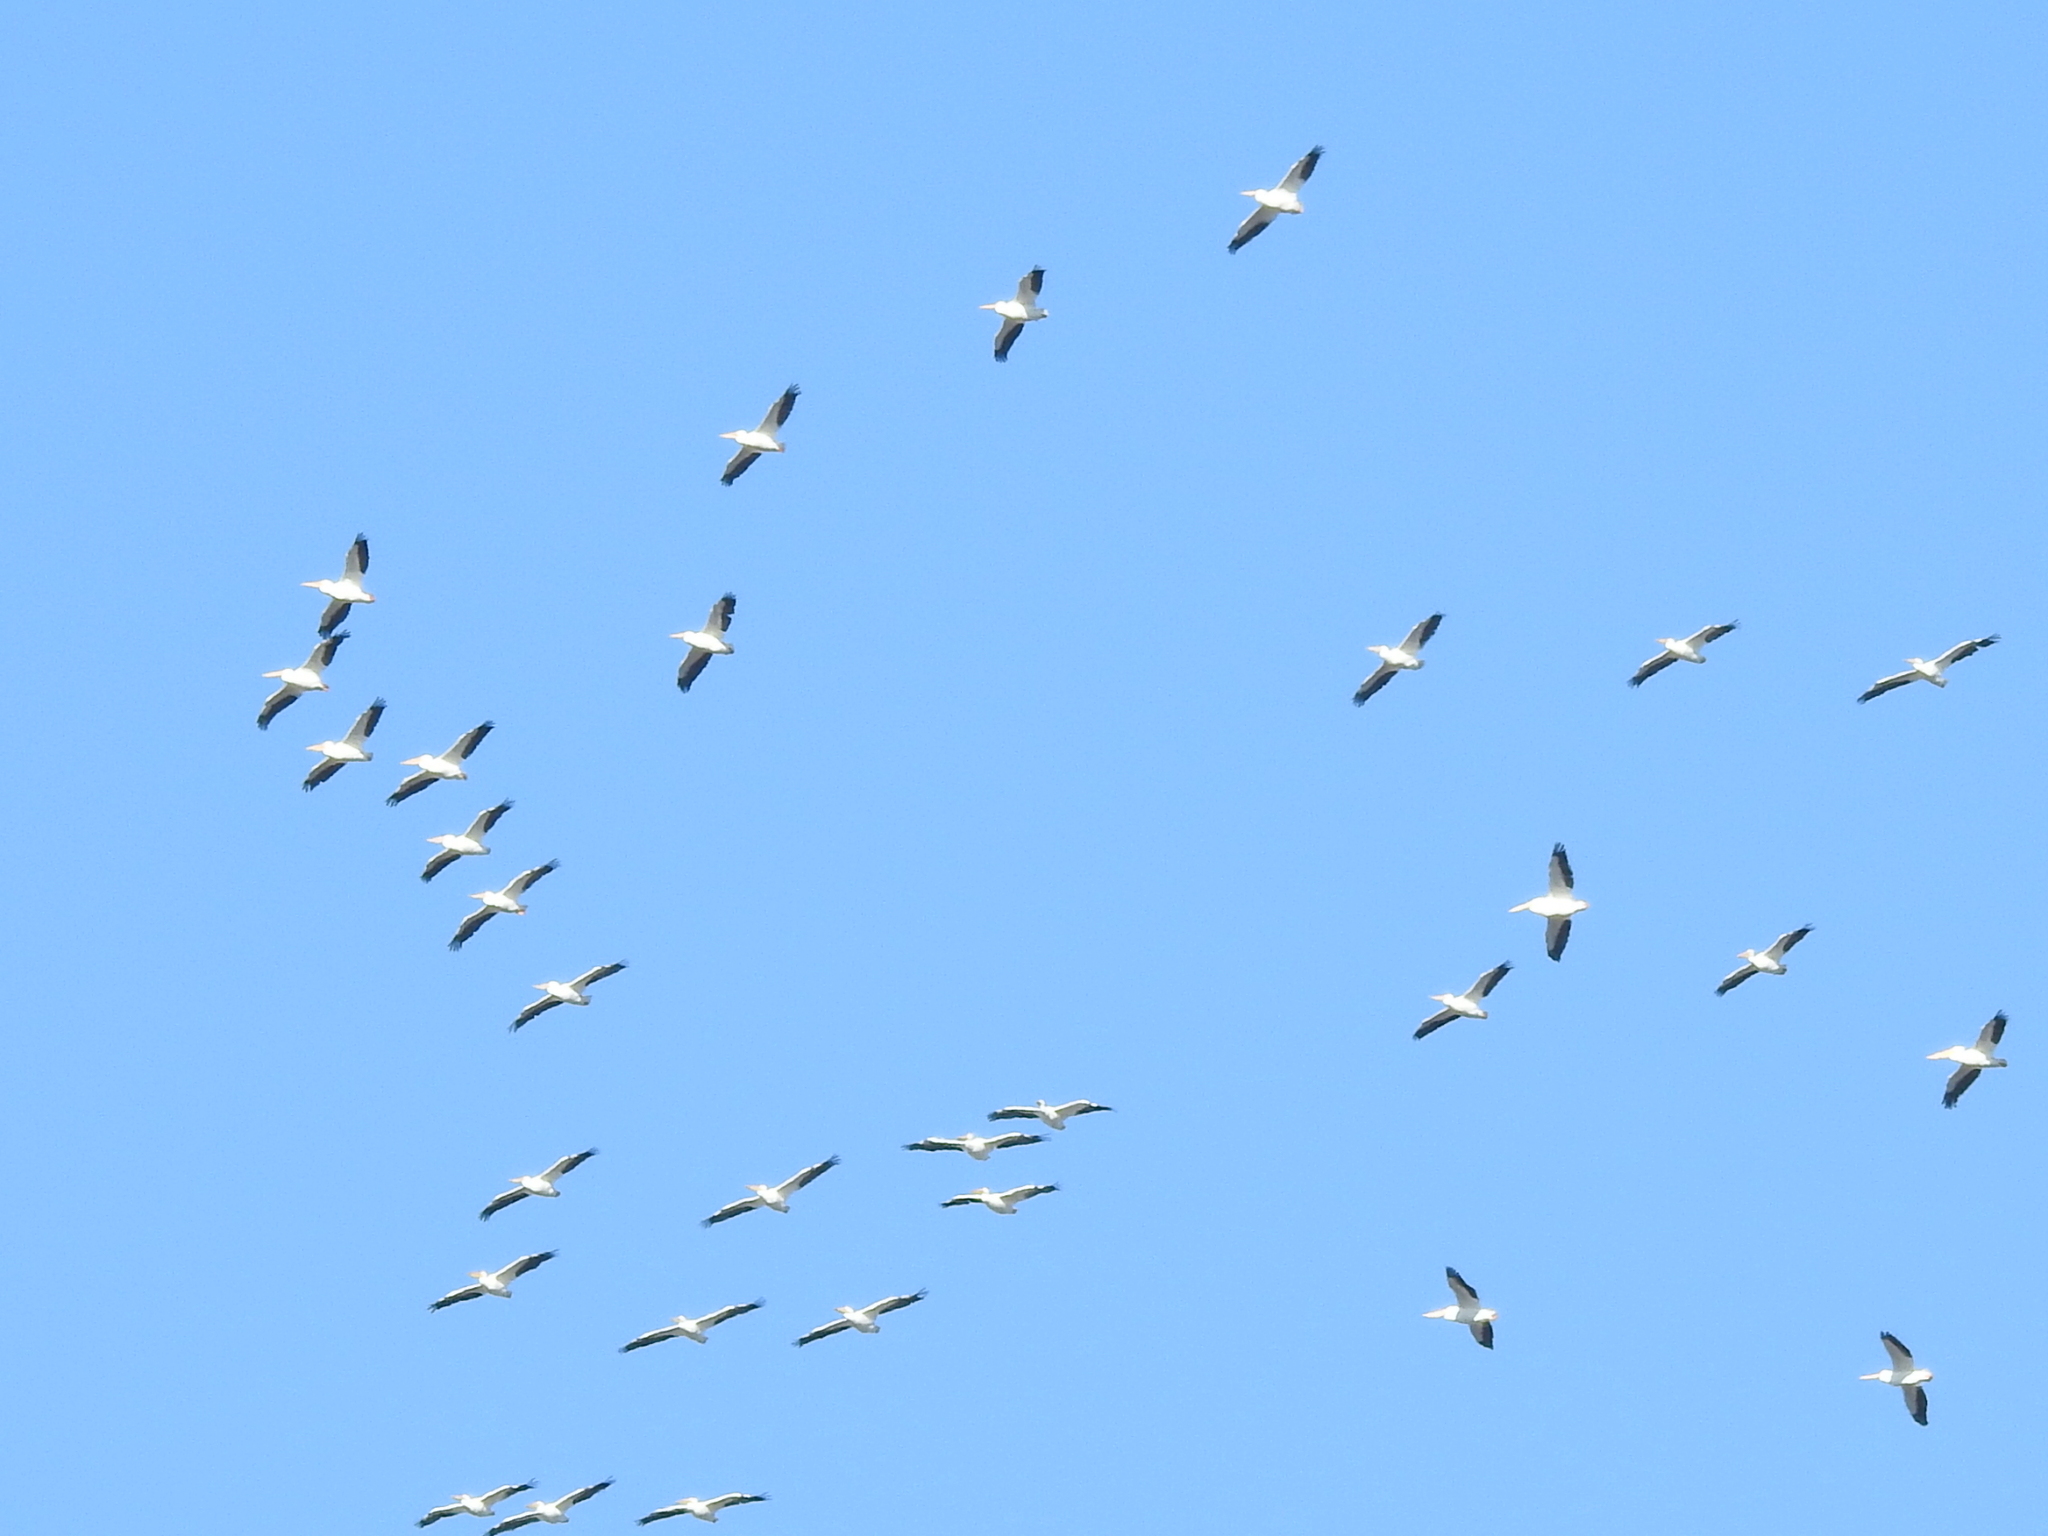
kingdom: Animalia
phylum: Chordata
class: Aves
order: Pelecaniformes
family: Pelecanidae
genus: Pelecanus
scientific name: Pelecanus erythrorhynchos
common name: American white pelican
